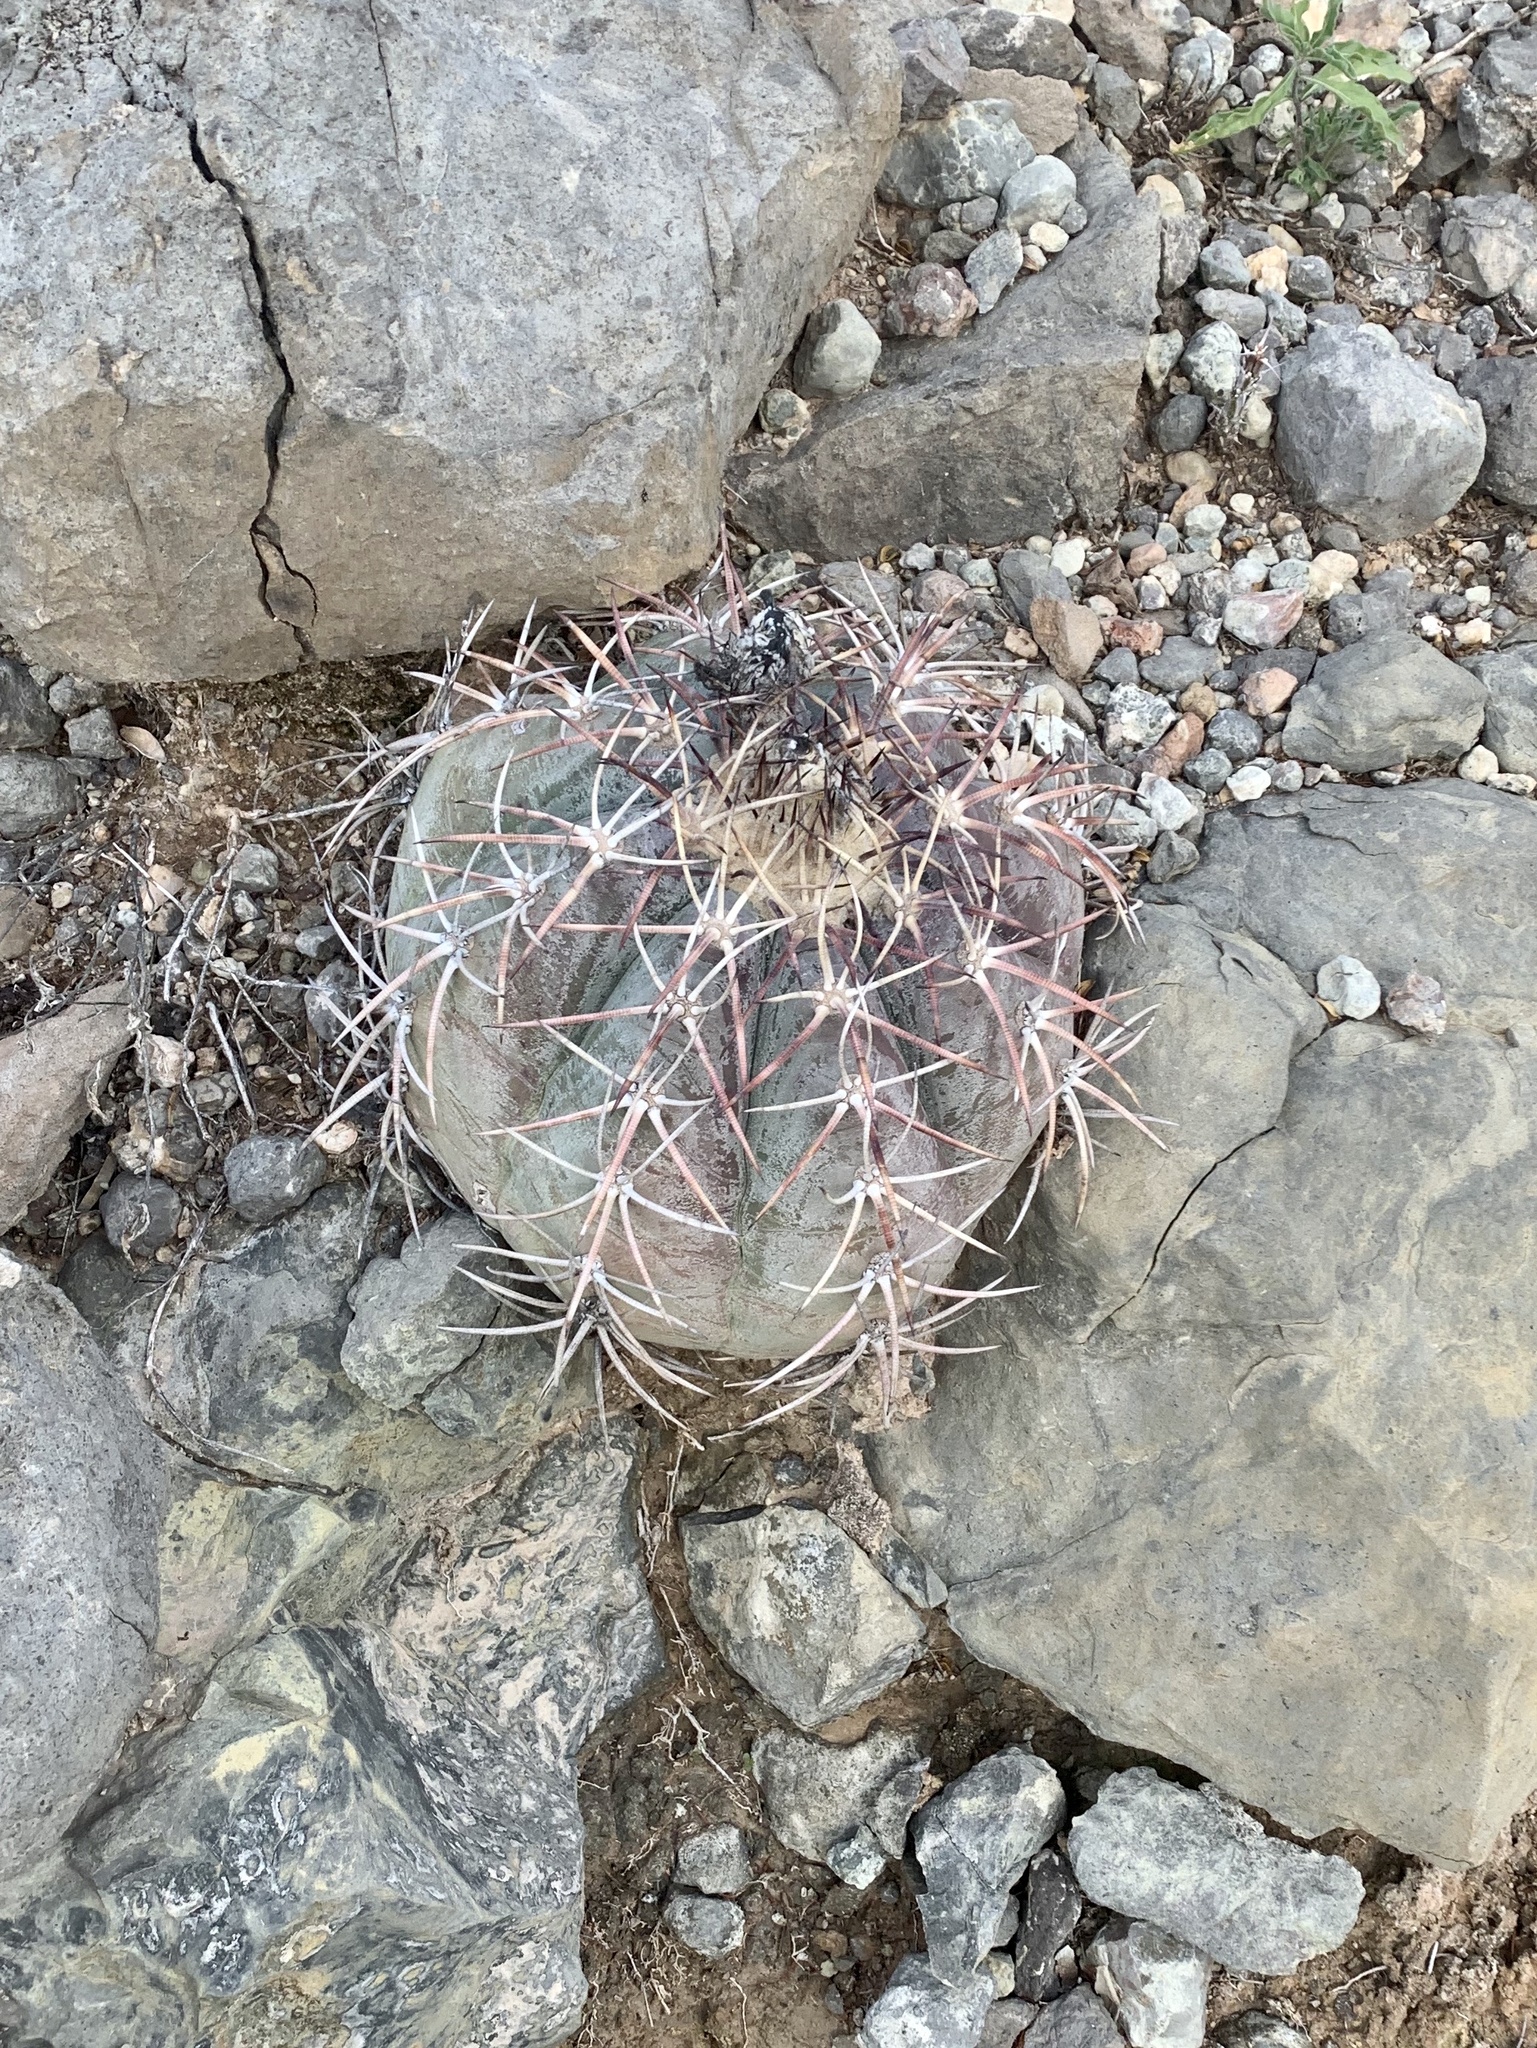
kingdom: Plantae
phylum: Tracheophyta
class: Magnoliopsida
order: Caryophyllales
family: Cactaceae
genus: Echinocactus
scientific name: Echinocactus horizonthalonius
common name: Devilshead
